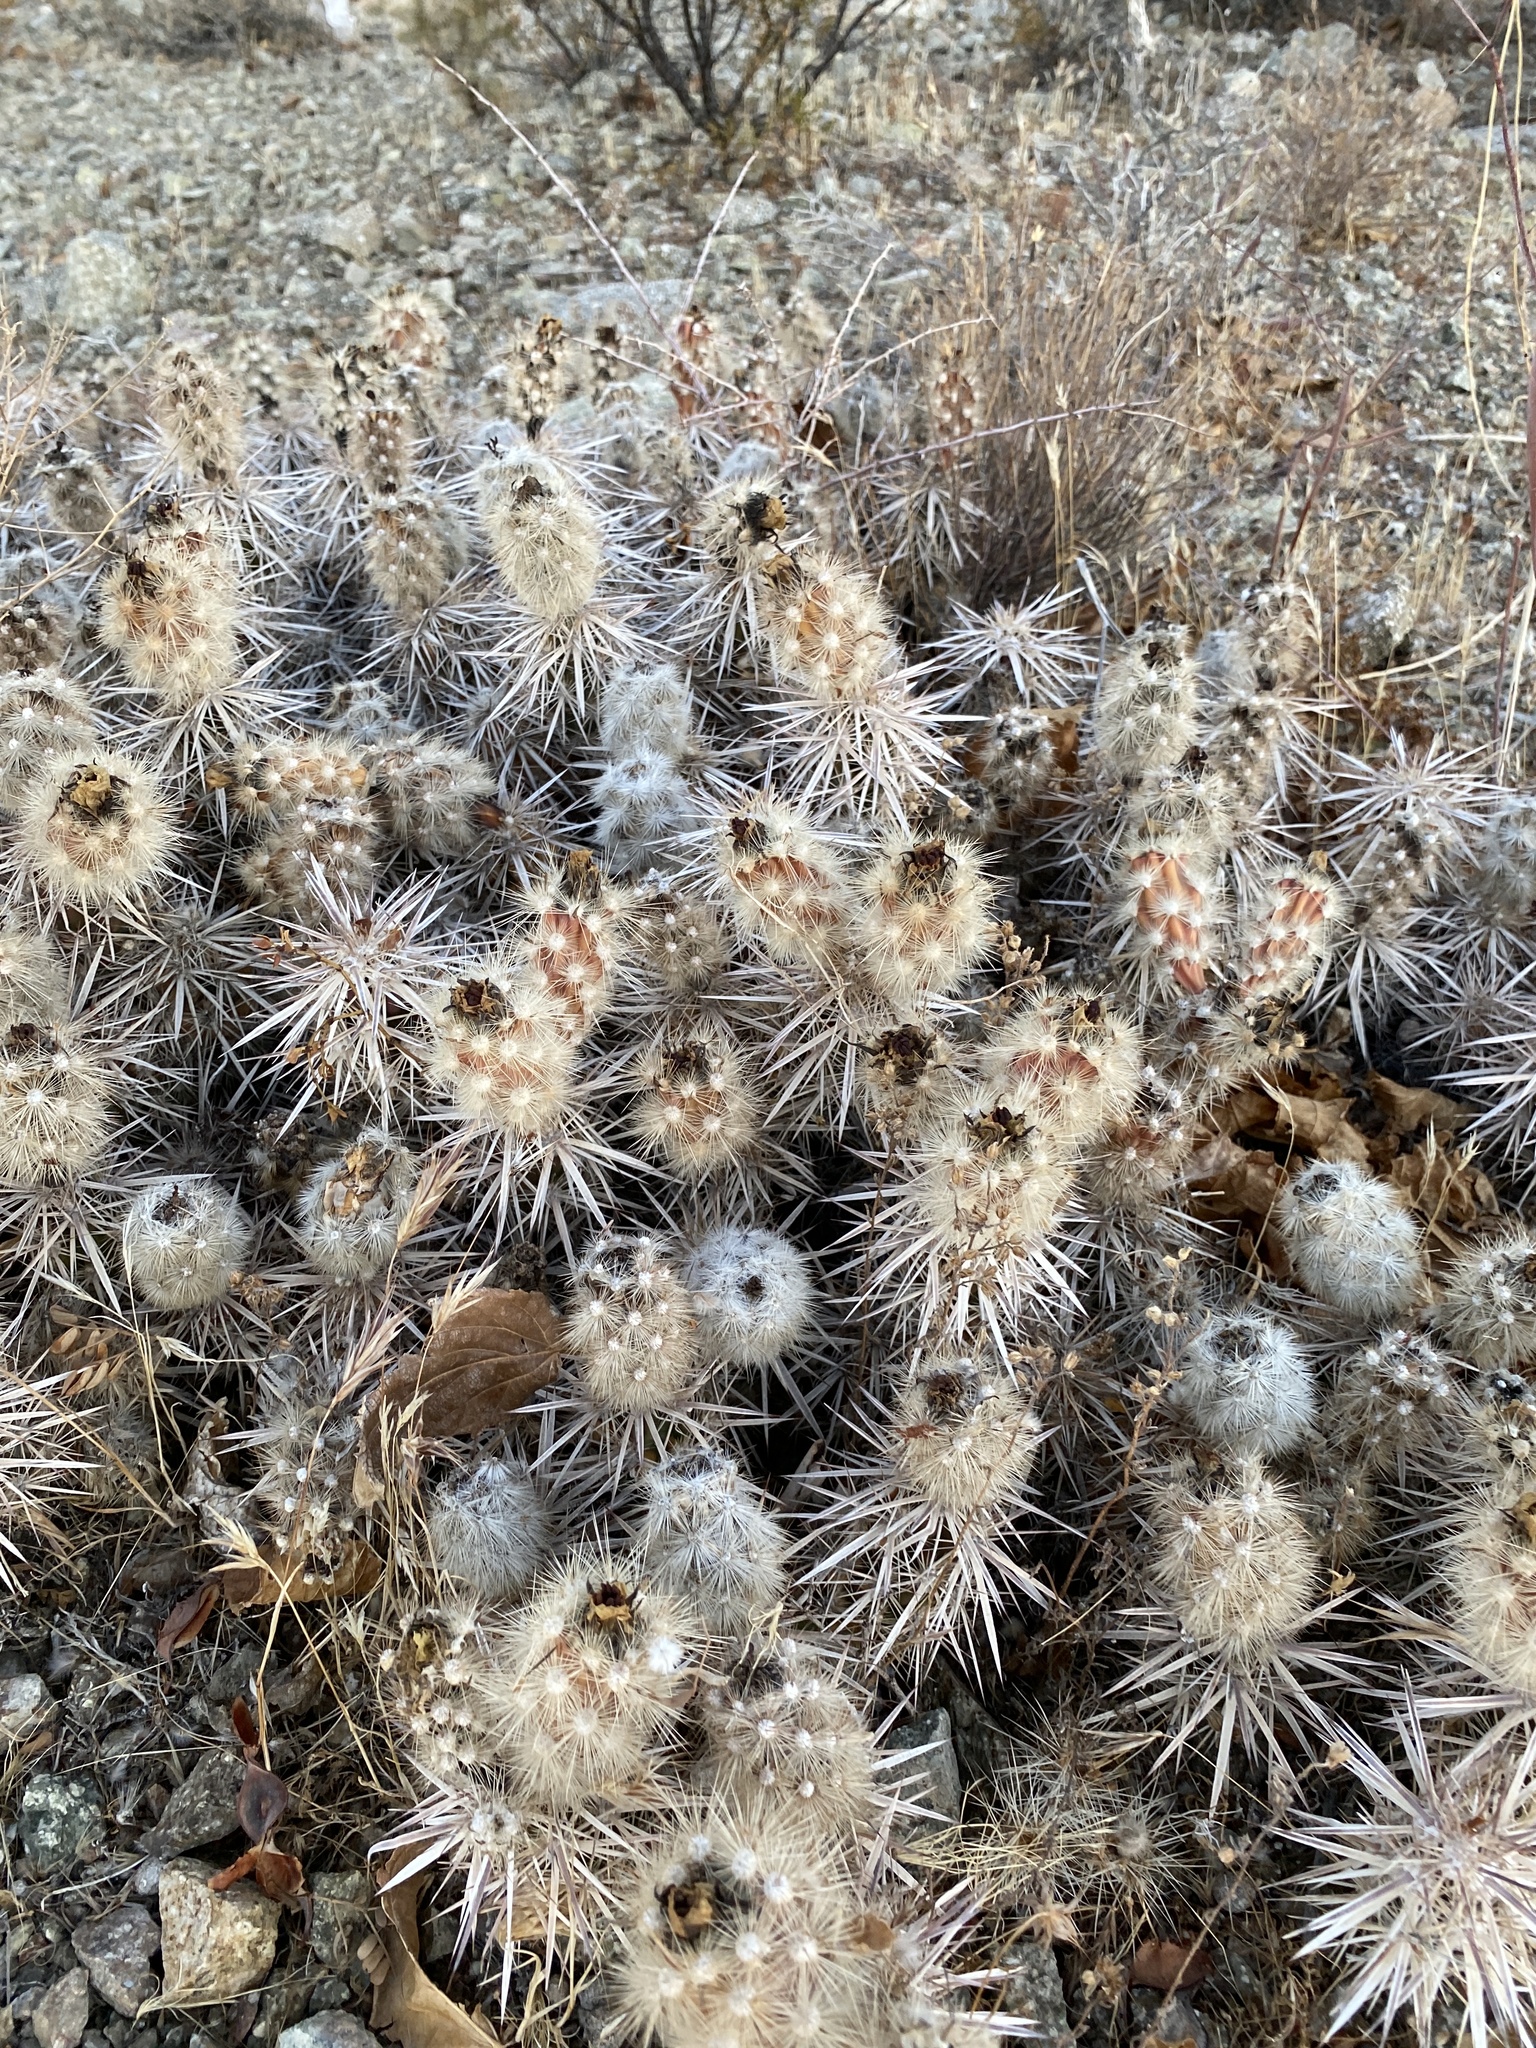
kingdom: Plantae
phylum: Tracheophyta
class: Magnoliopsida
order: Caryophyllales
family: Cactaceae
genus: Grusonia
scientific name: Grusonia parishiorum
